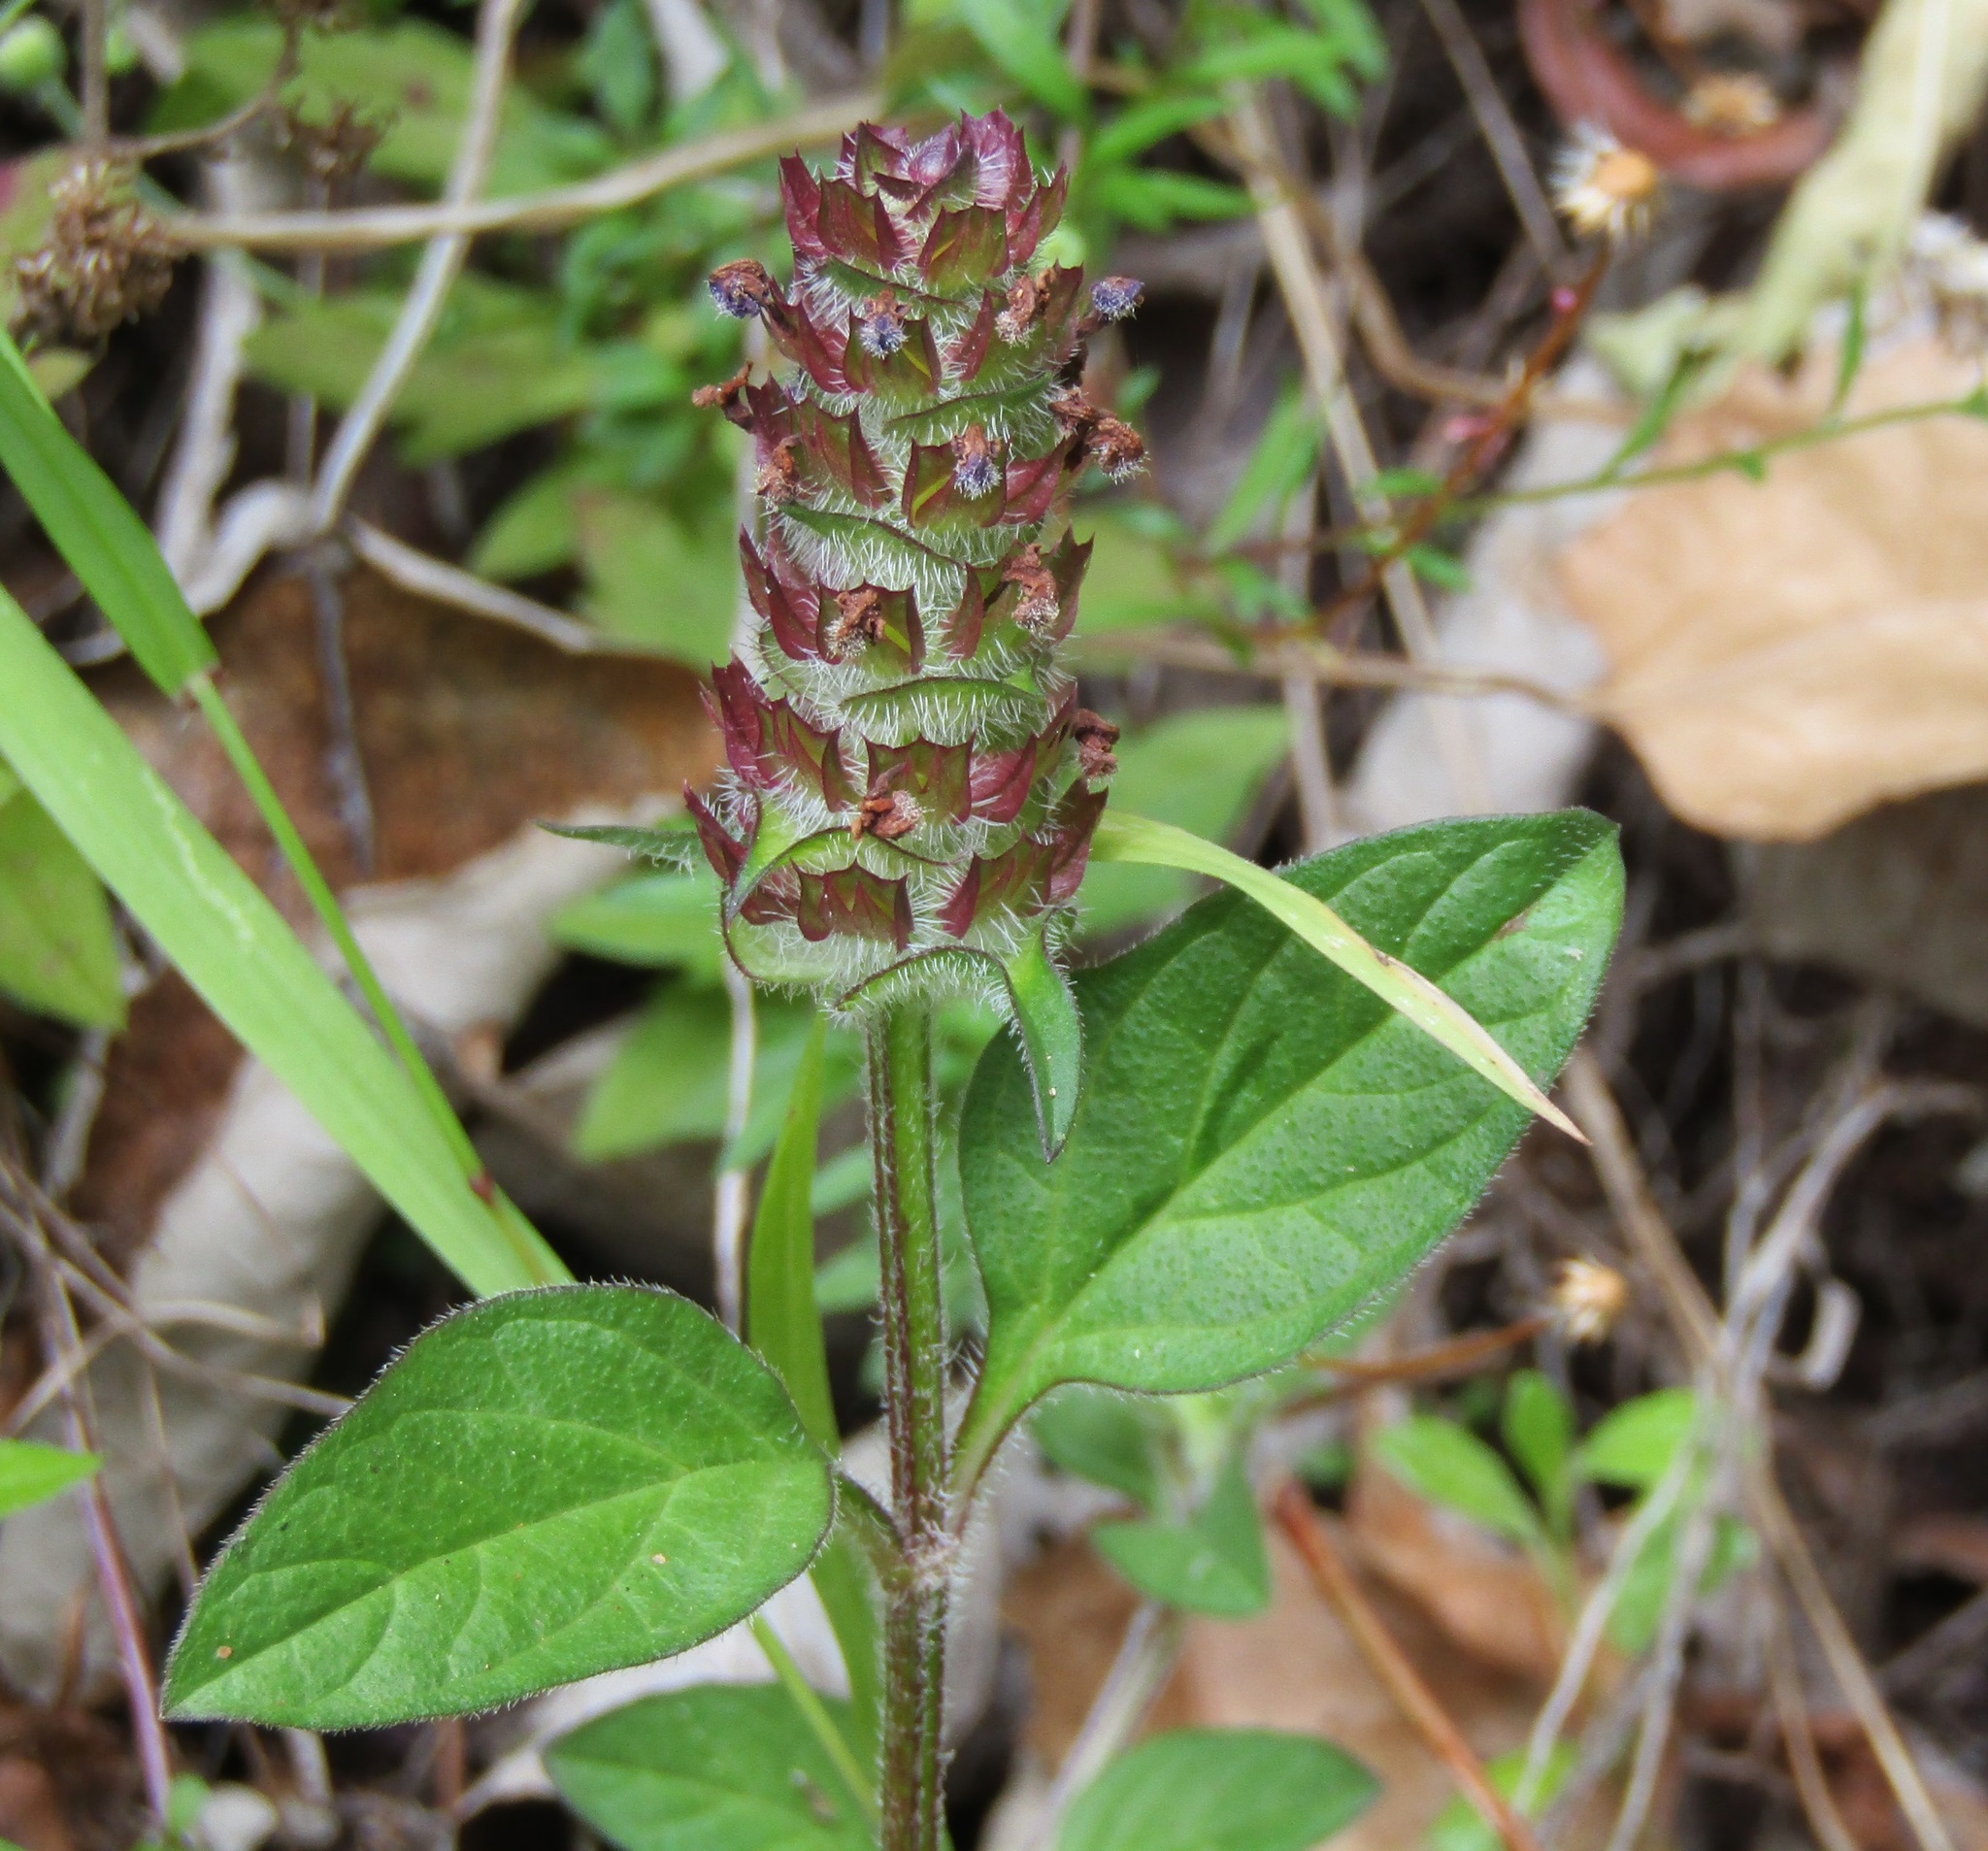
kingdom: Plantae
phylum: Tracheophyta
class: Magnoliopsida
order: Lamiales
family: Lamiaceae
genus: Prunella
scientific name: Prunella vulgaris
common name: Heal-all
